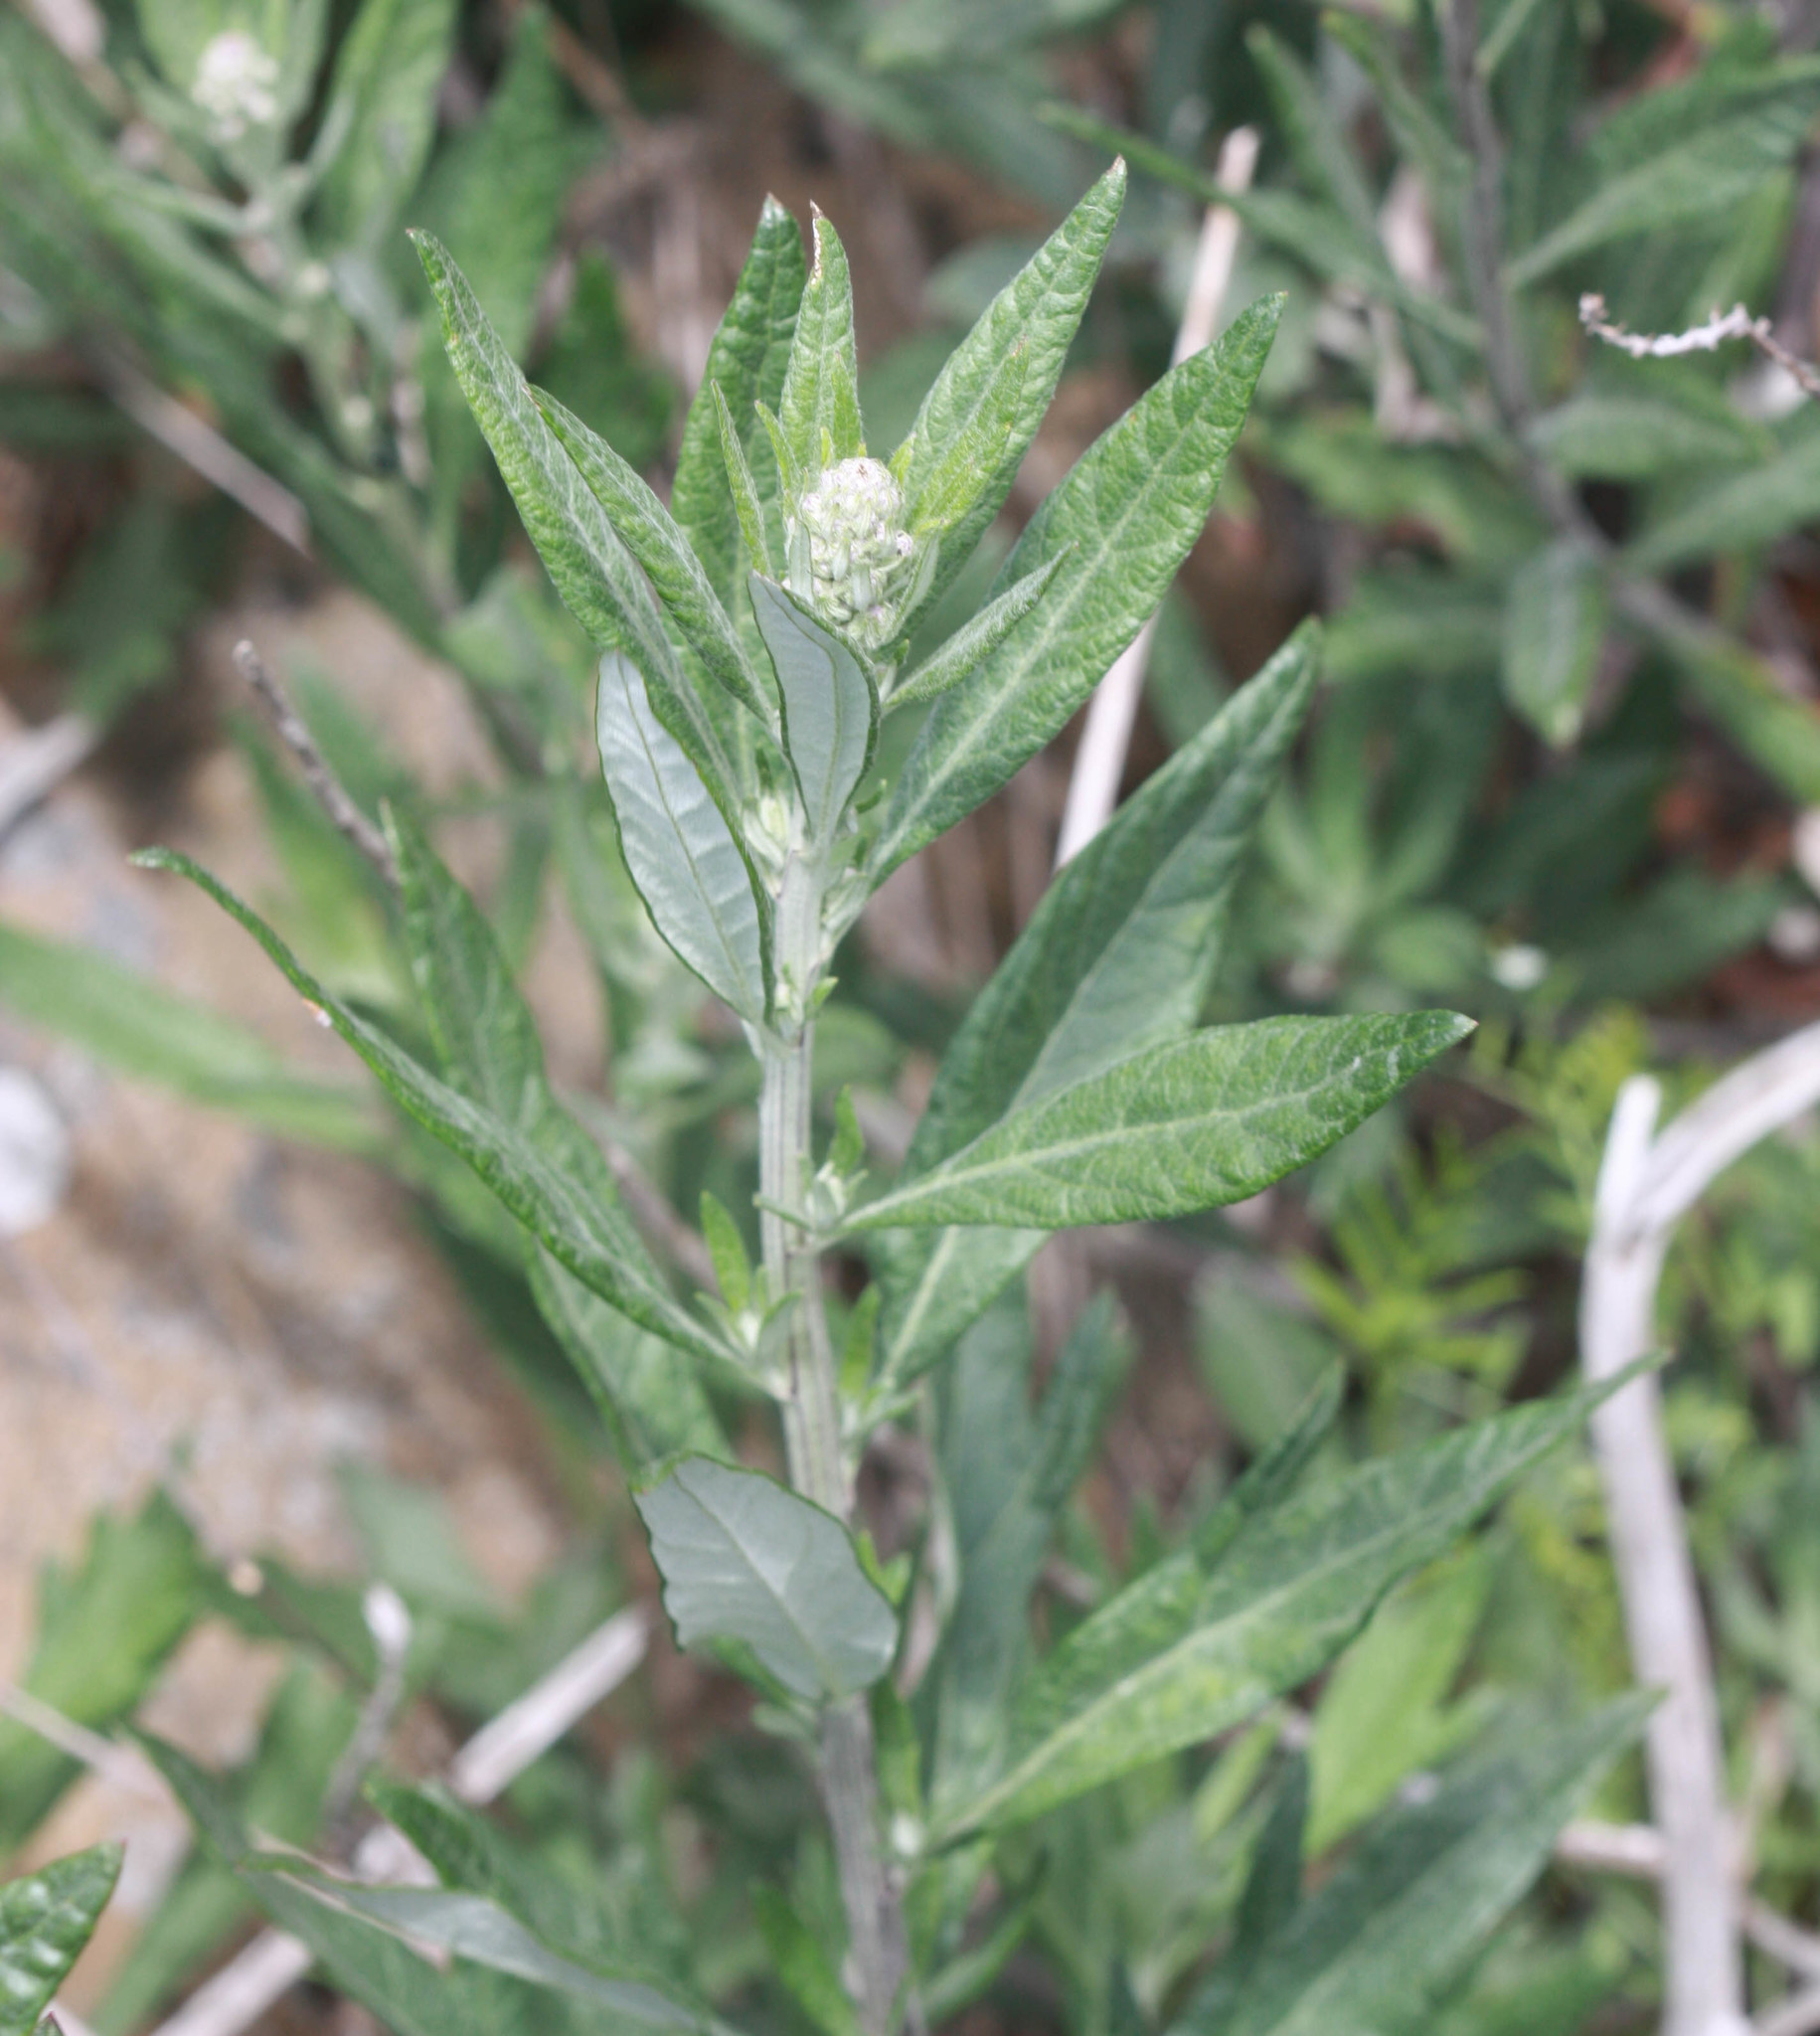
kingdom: Plantae
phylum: Tracheophyta
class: Magnoliopsida
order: Asterales
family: Asteraceae
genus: Artemisia
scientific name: Artemisia douglasiana
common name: Northwest mugwort
